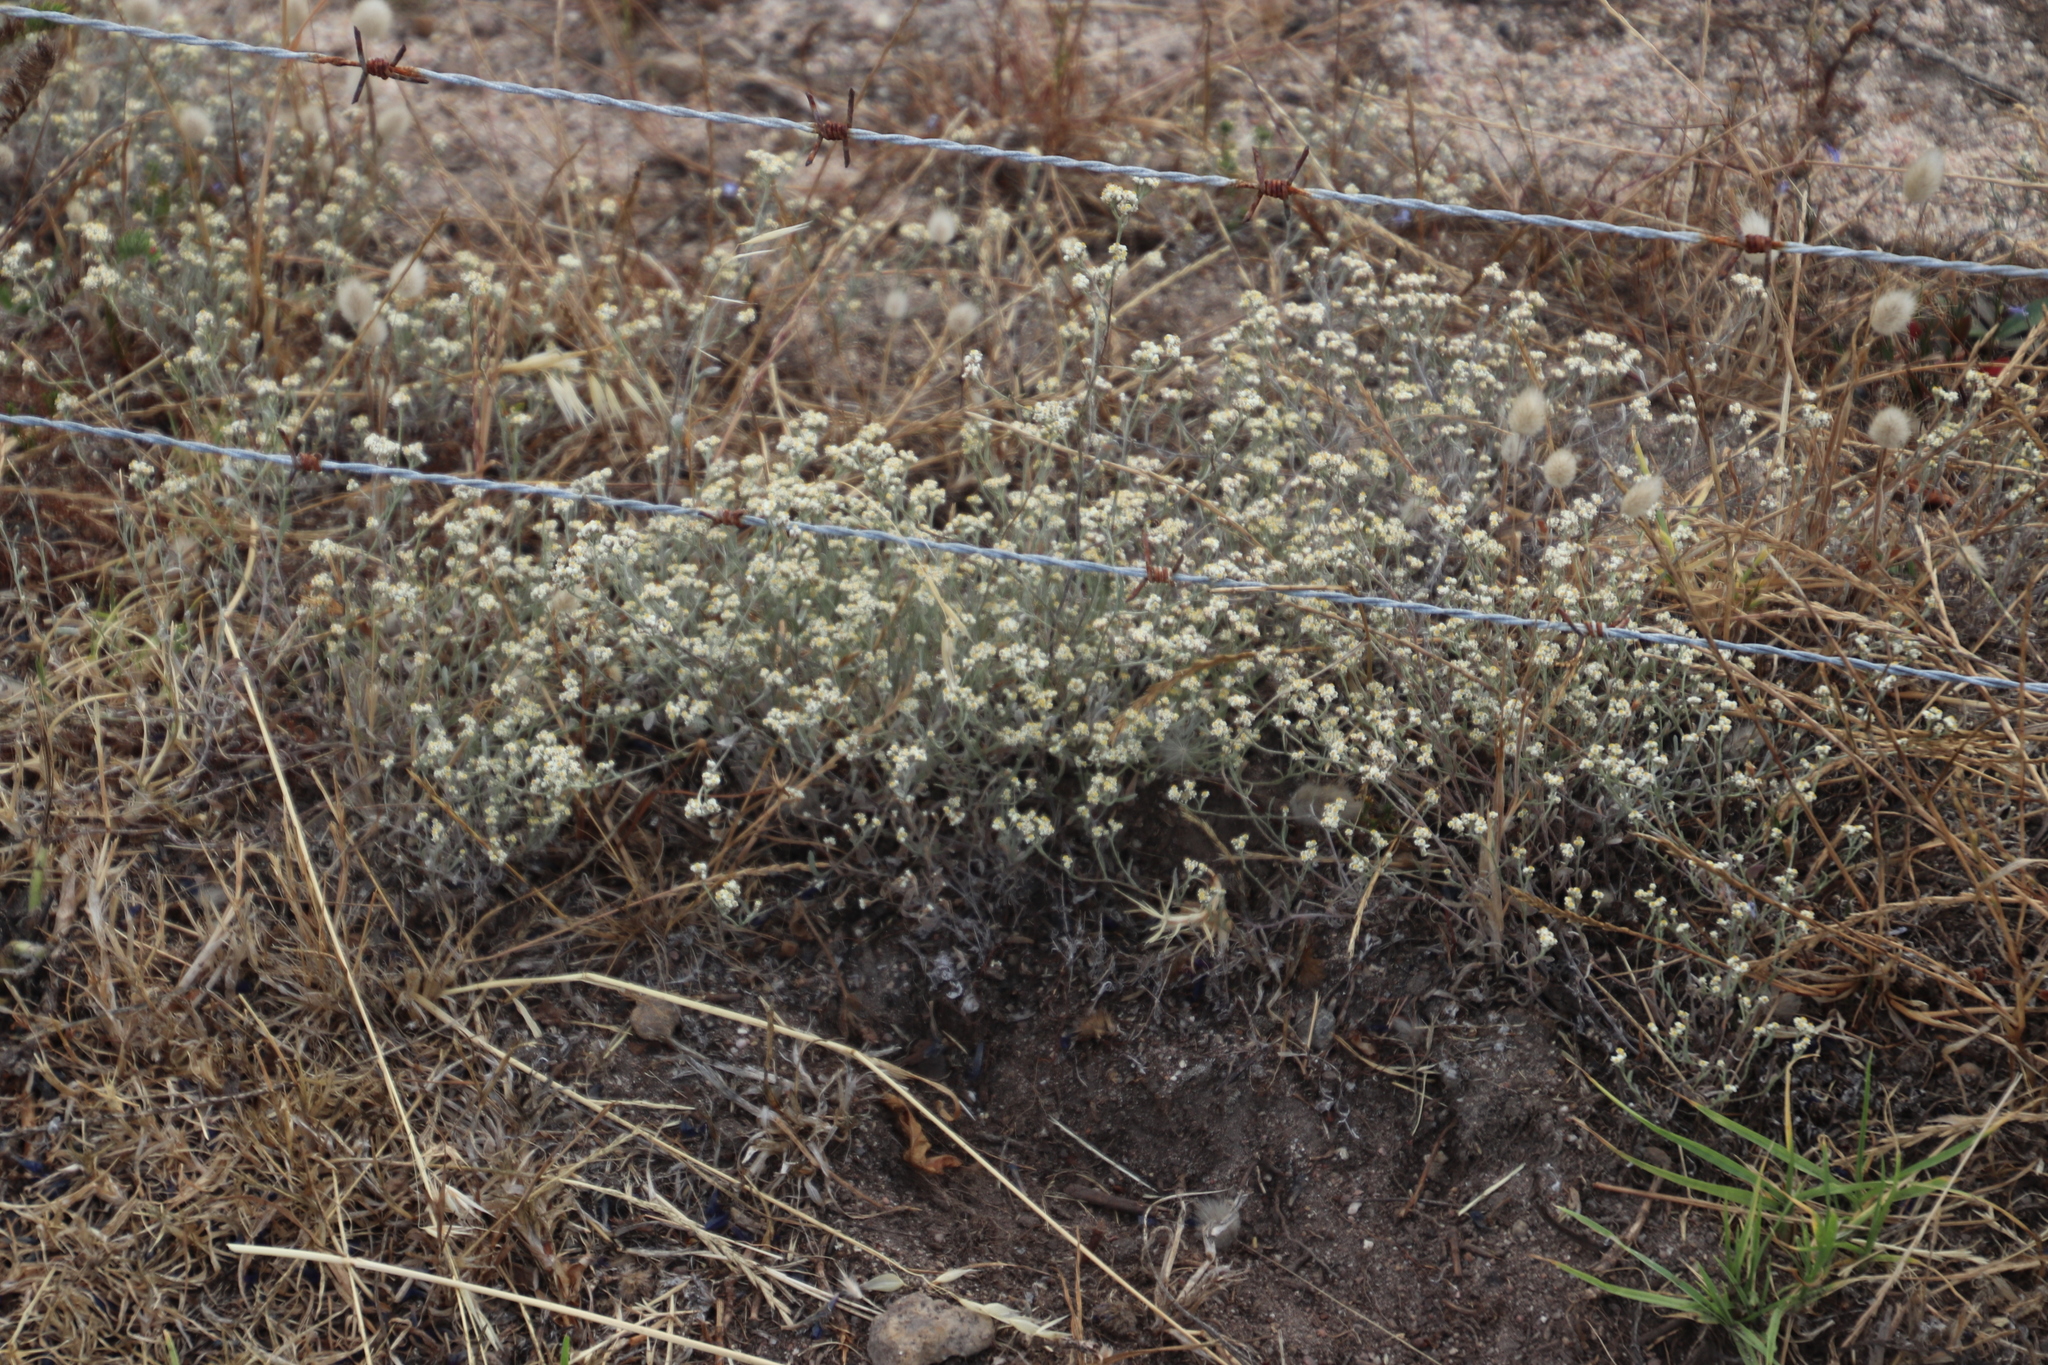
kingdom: Plantae
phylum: Tracheophyta
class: Magnoliopsida
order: Asterales
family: Asteraceae
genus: Helichrysum
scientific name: Helichrysum indicum
